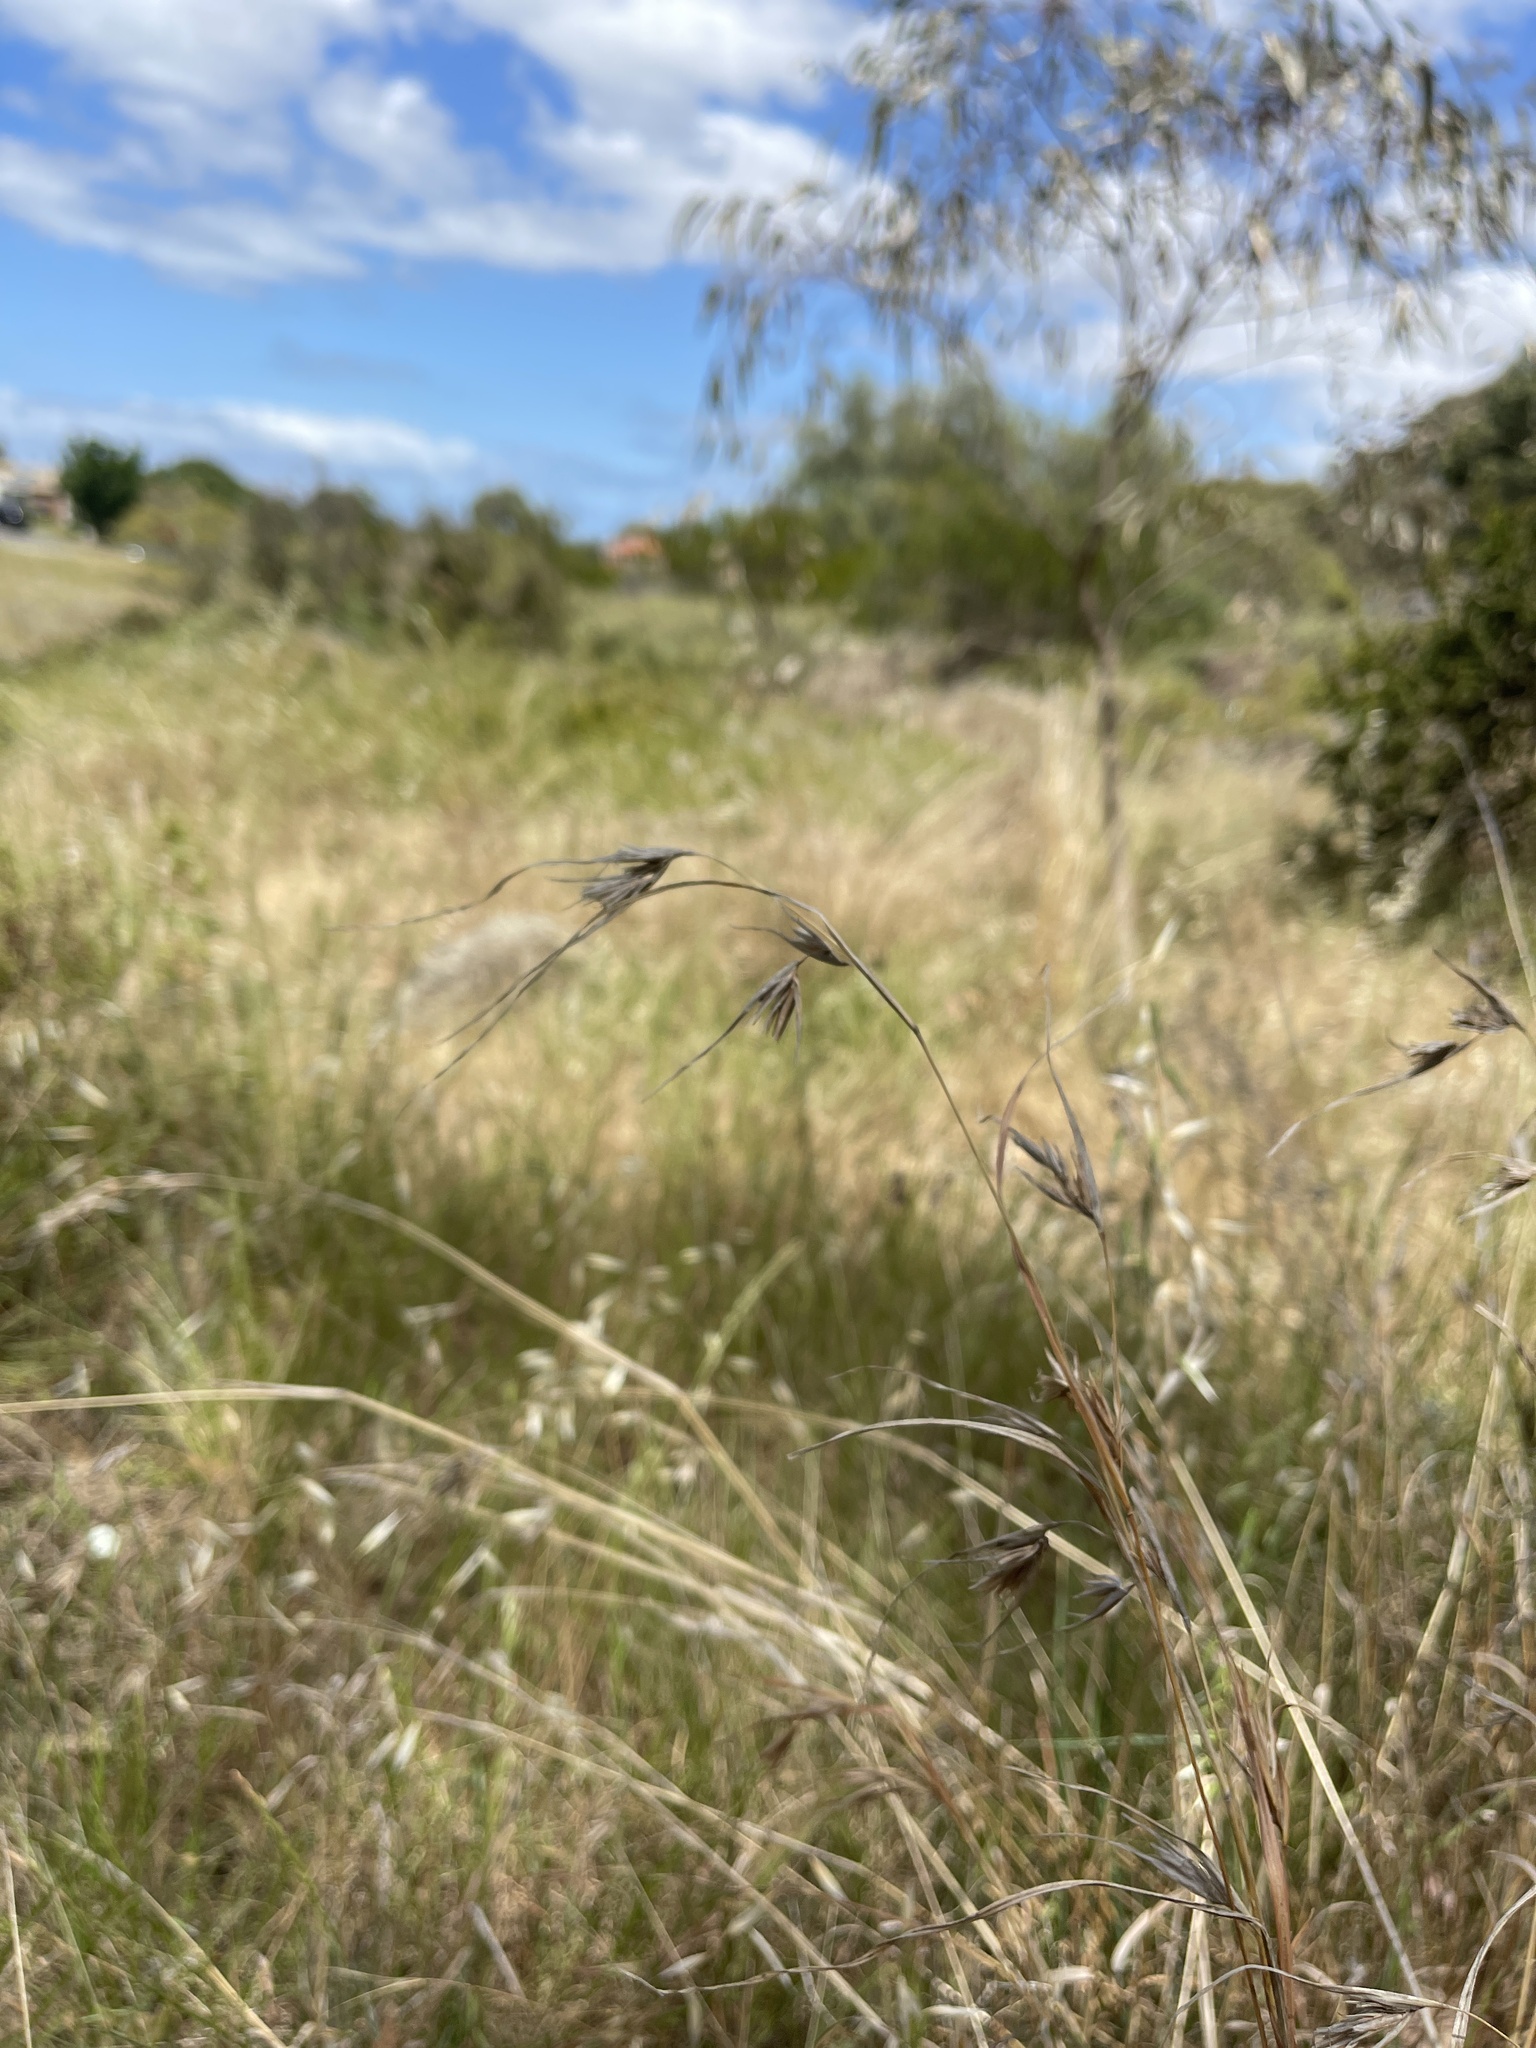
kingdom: Plantae
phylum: Tracheophyta
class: Liliopsida
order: Poales
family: Poaceae
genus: Themeda
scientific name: Themeda triandra
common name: Kangaroo grass
